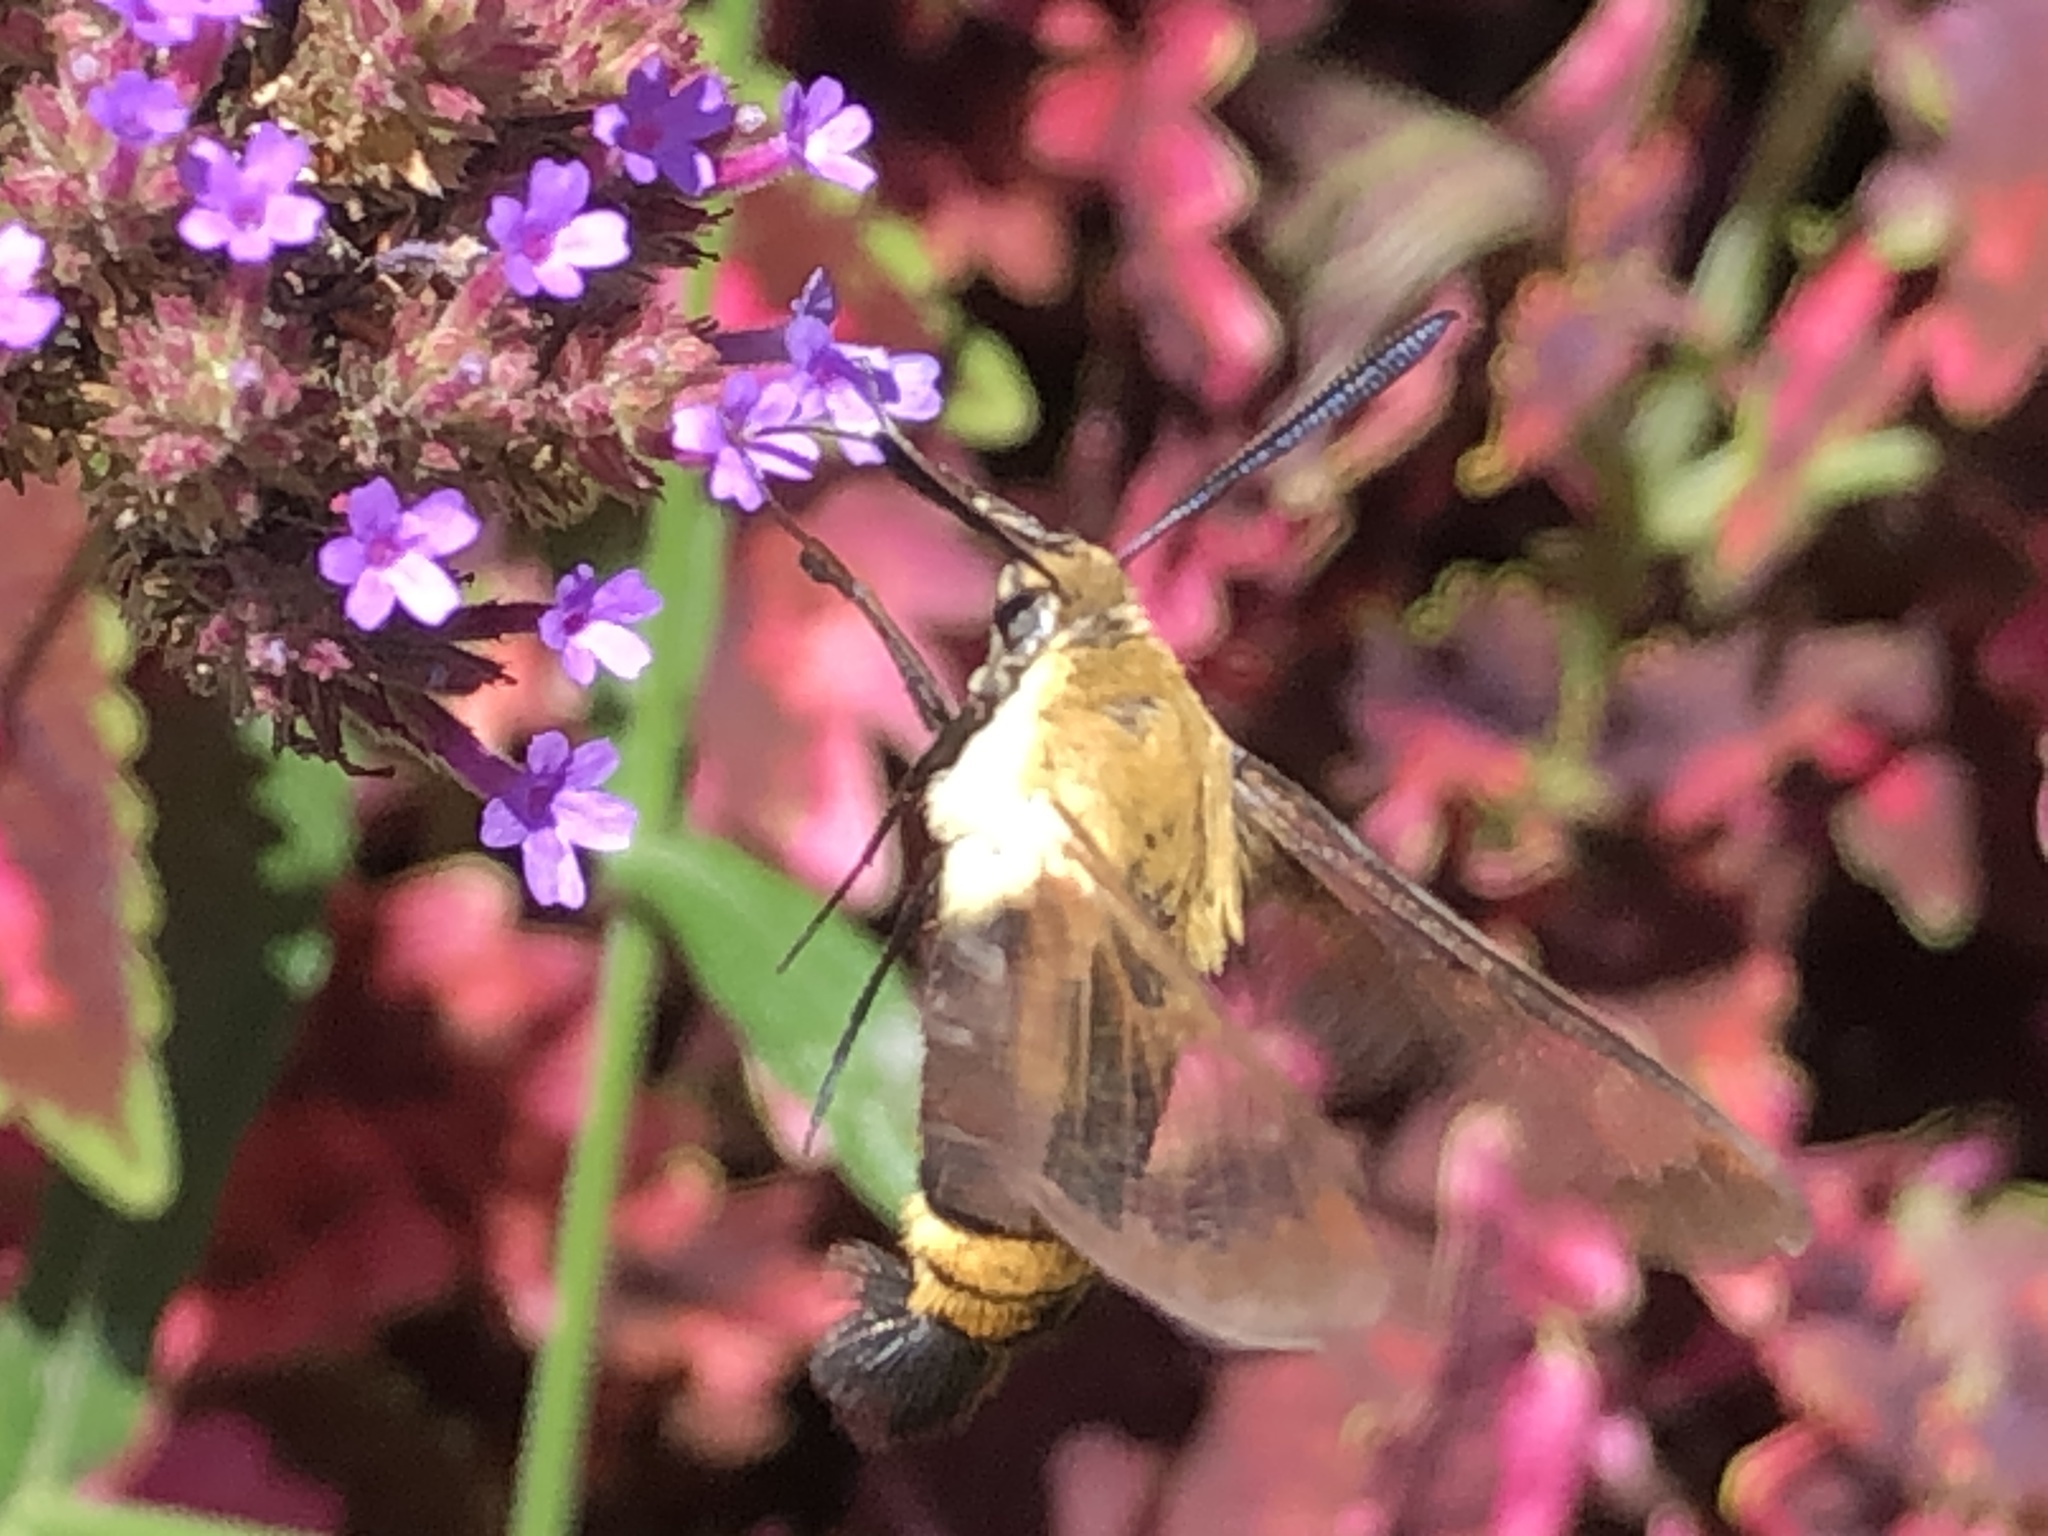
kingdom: Animalia
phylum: Arthropoda
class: Insecta
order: Lepidoptera
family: Sphingidae
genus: Hemaris
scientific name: Hemaris diffinis
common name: Bumblebee moth
